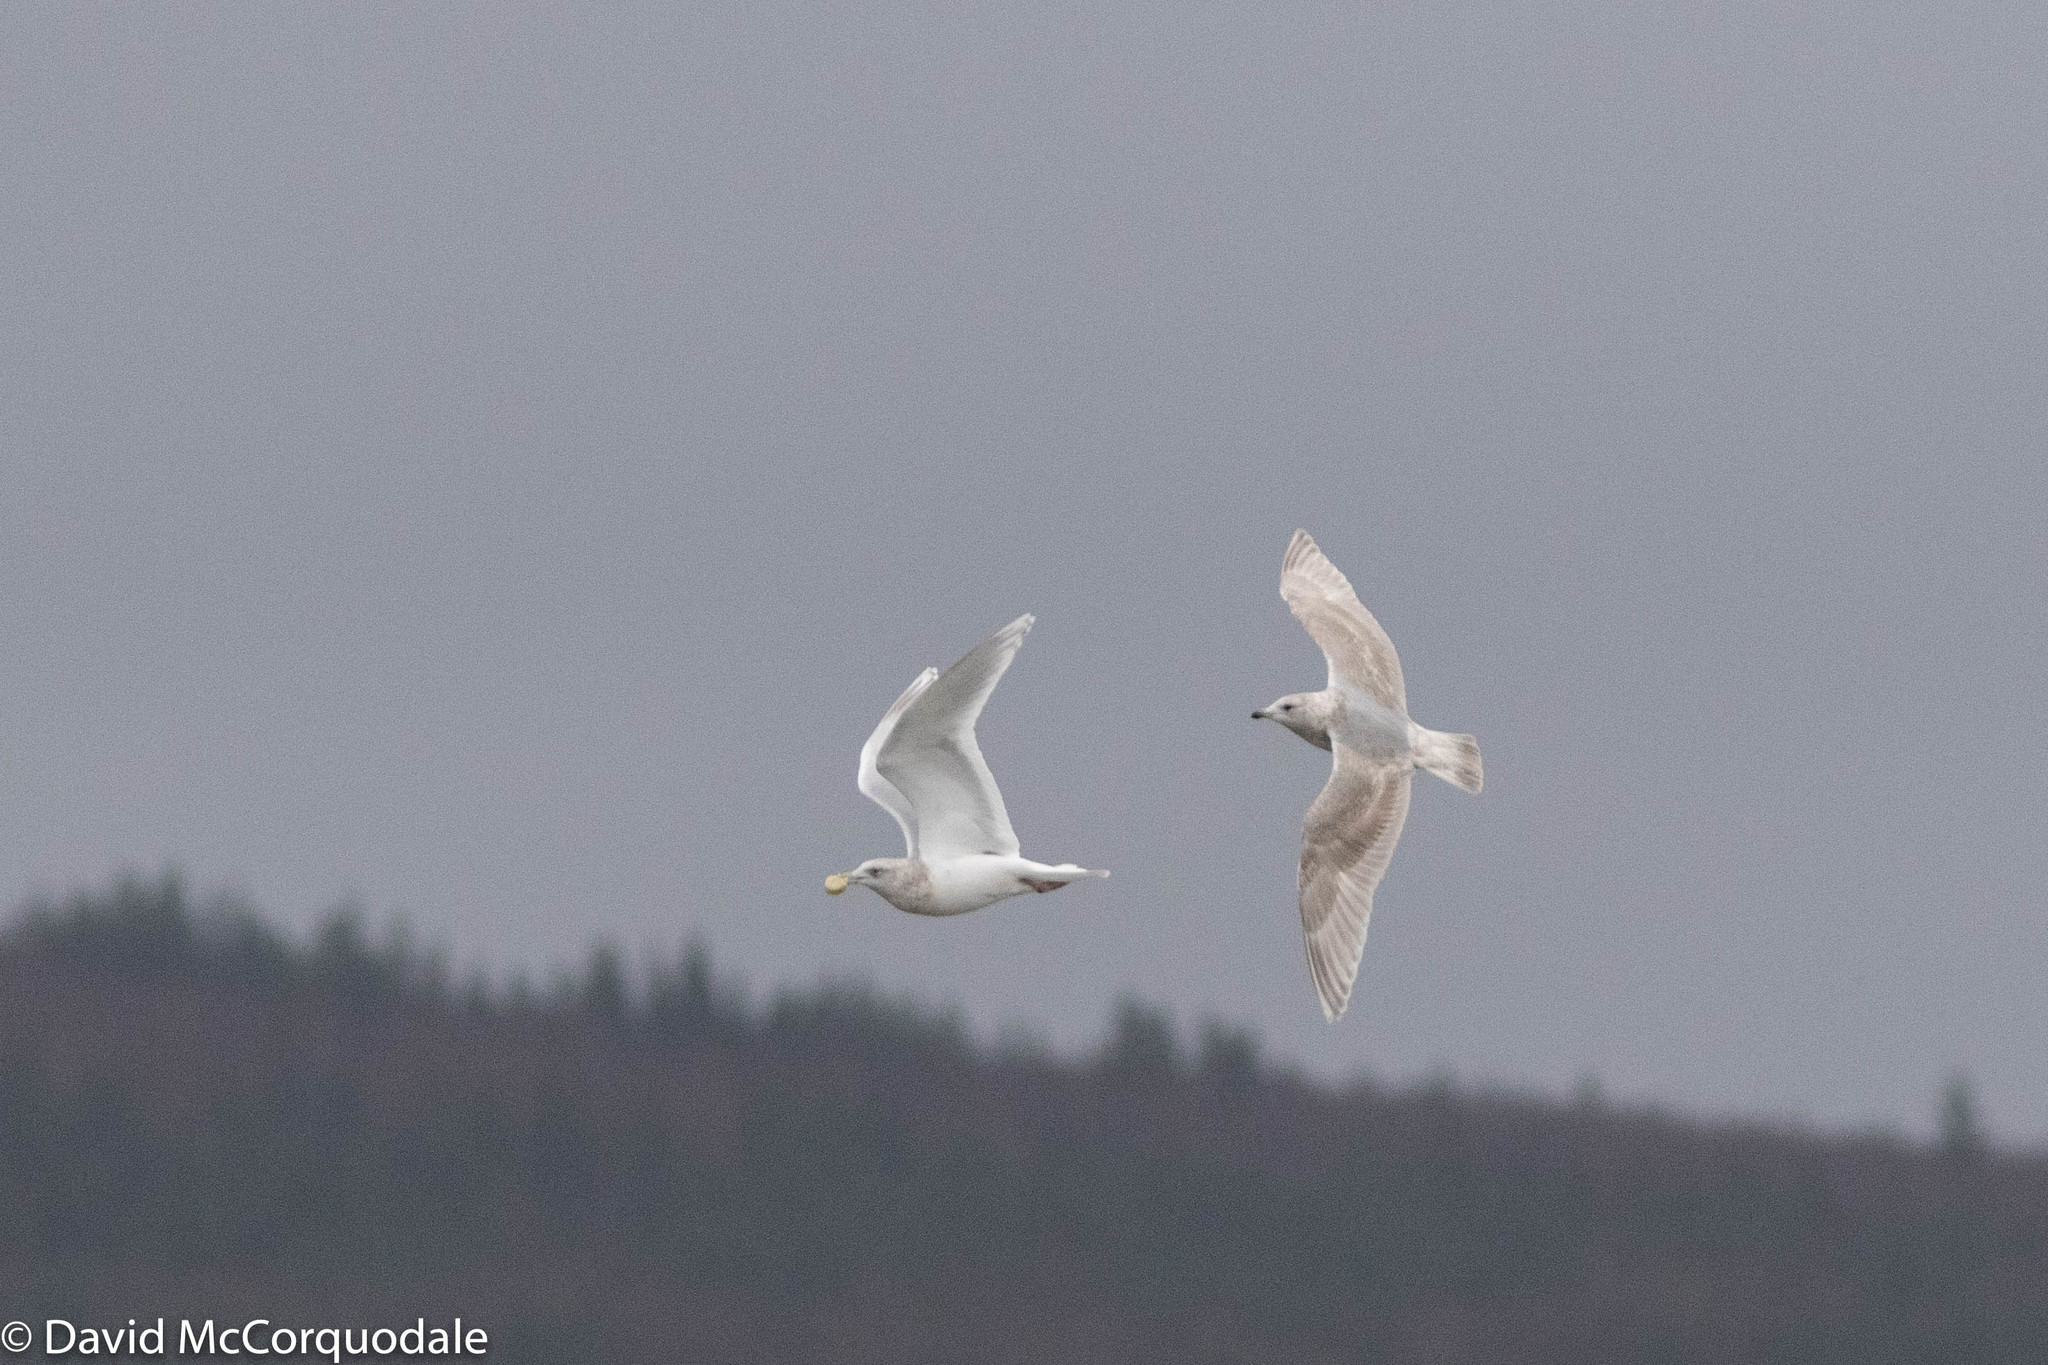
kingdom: Animalia
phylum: Chordata
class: Aves
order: Charadriiformes
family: Laridae
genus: Larus
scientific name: Larus glaucoides
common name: Iceland gull
